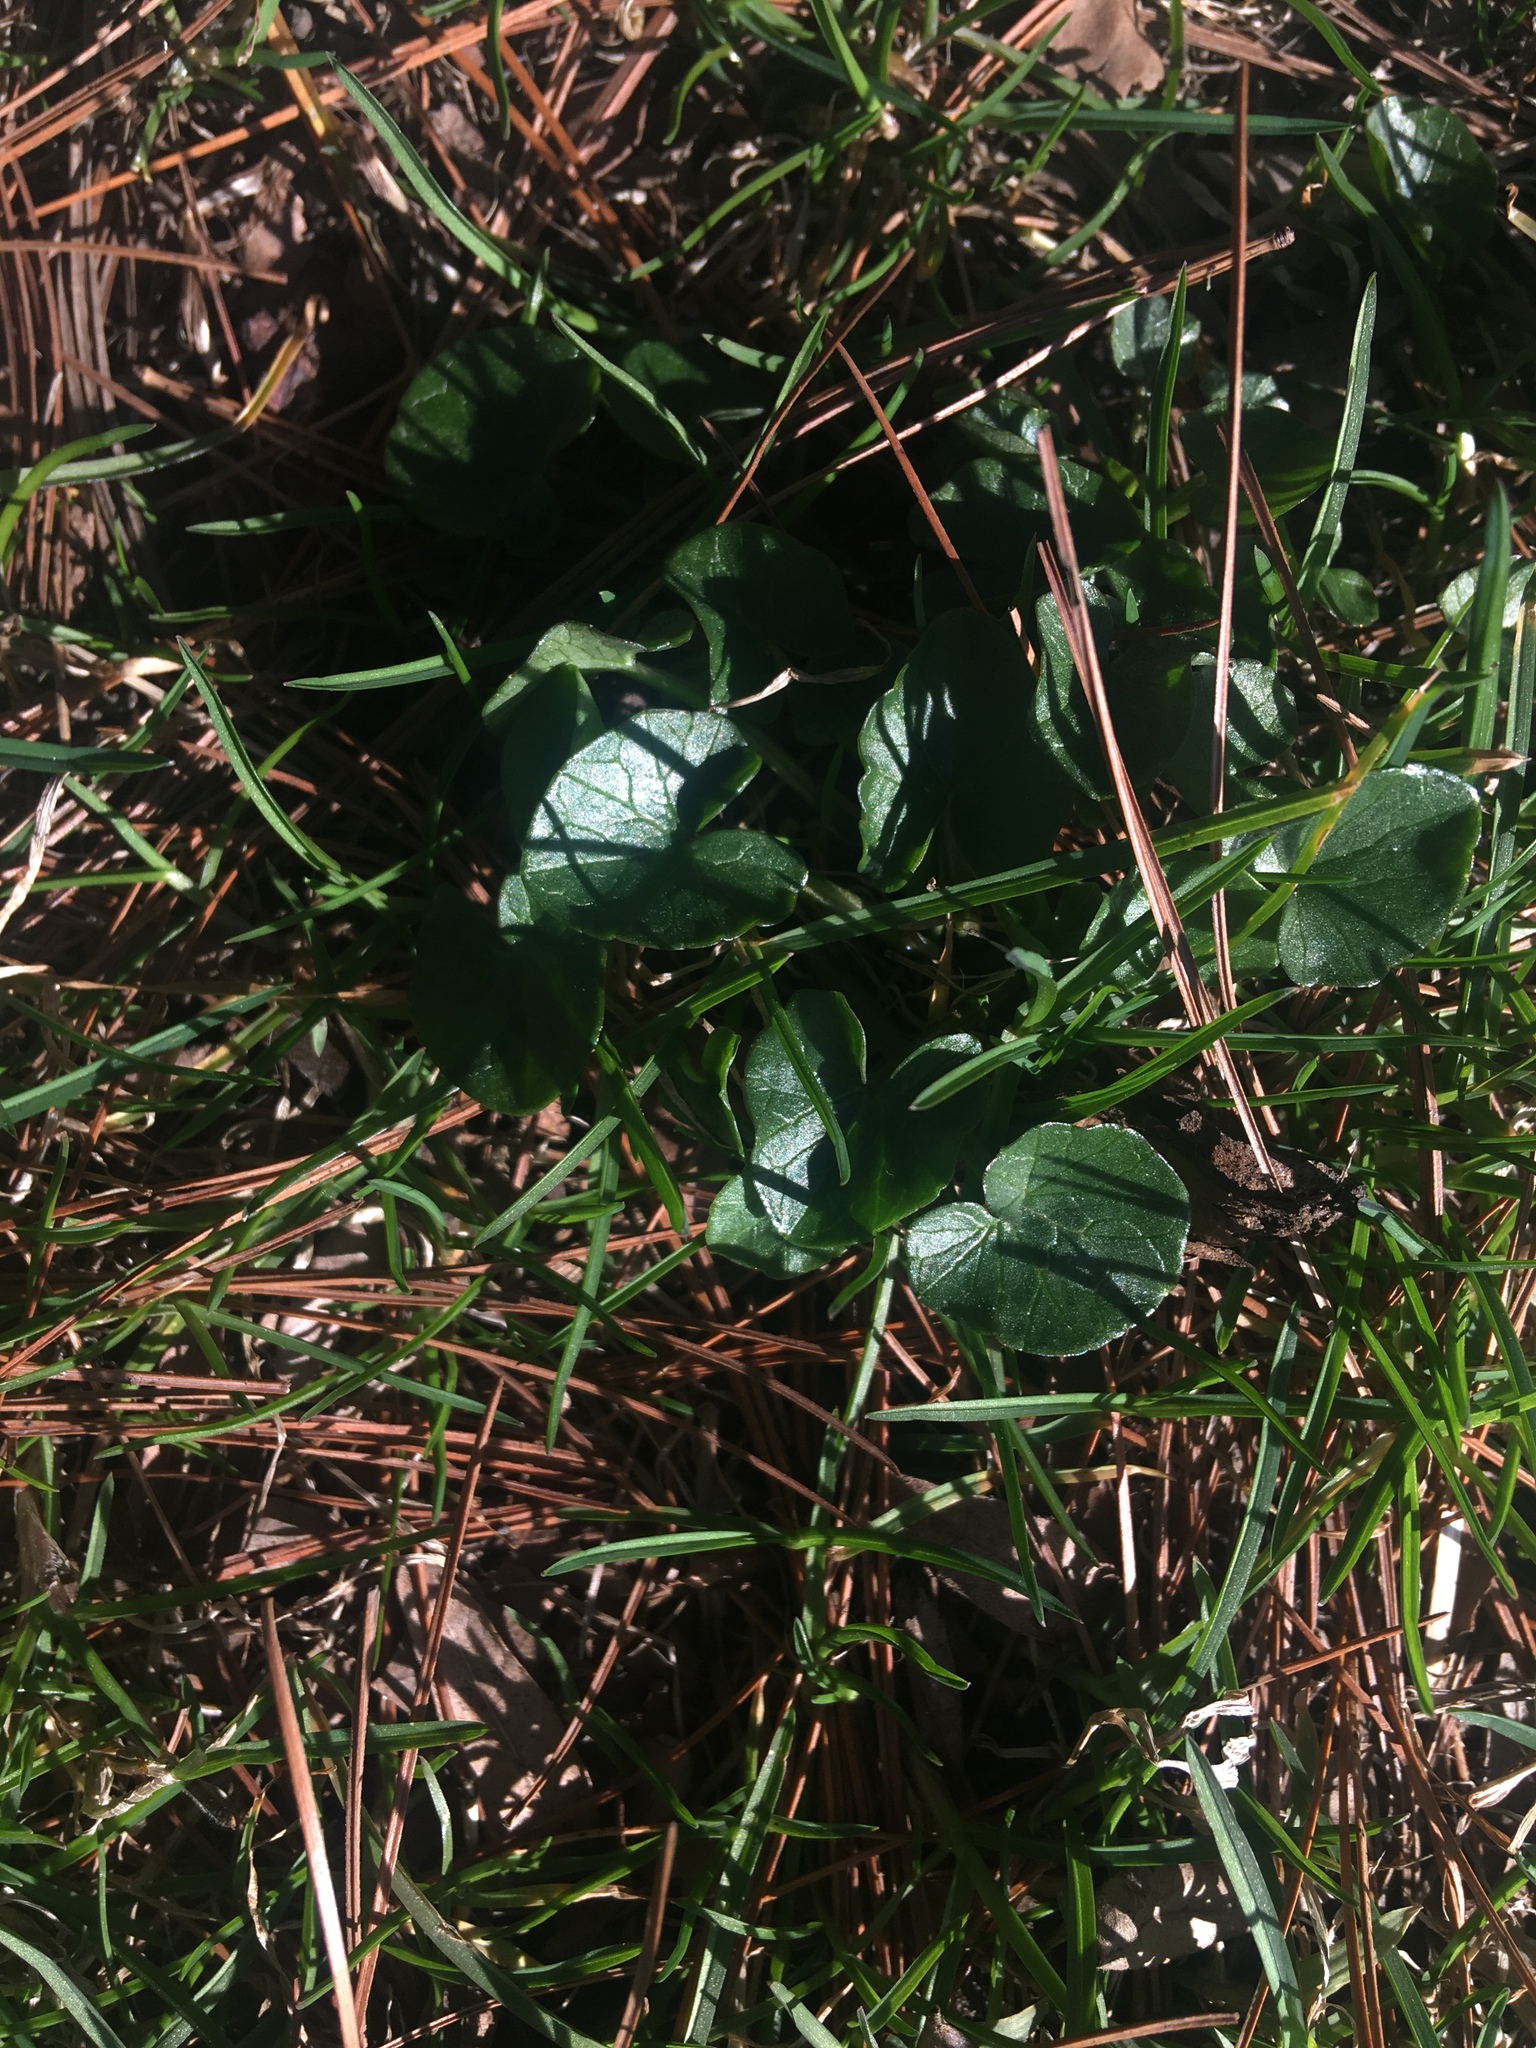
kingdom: Plantae
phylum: Tracheophyta
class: Magnoliopsida
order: Ranunculales
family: Ranunculaceae
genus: Ficaria
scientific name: Ficaria verna
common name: Lesser celandine
